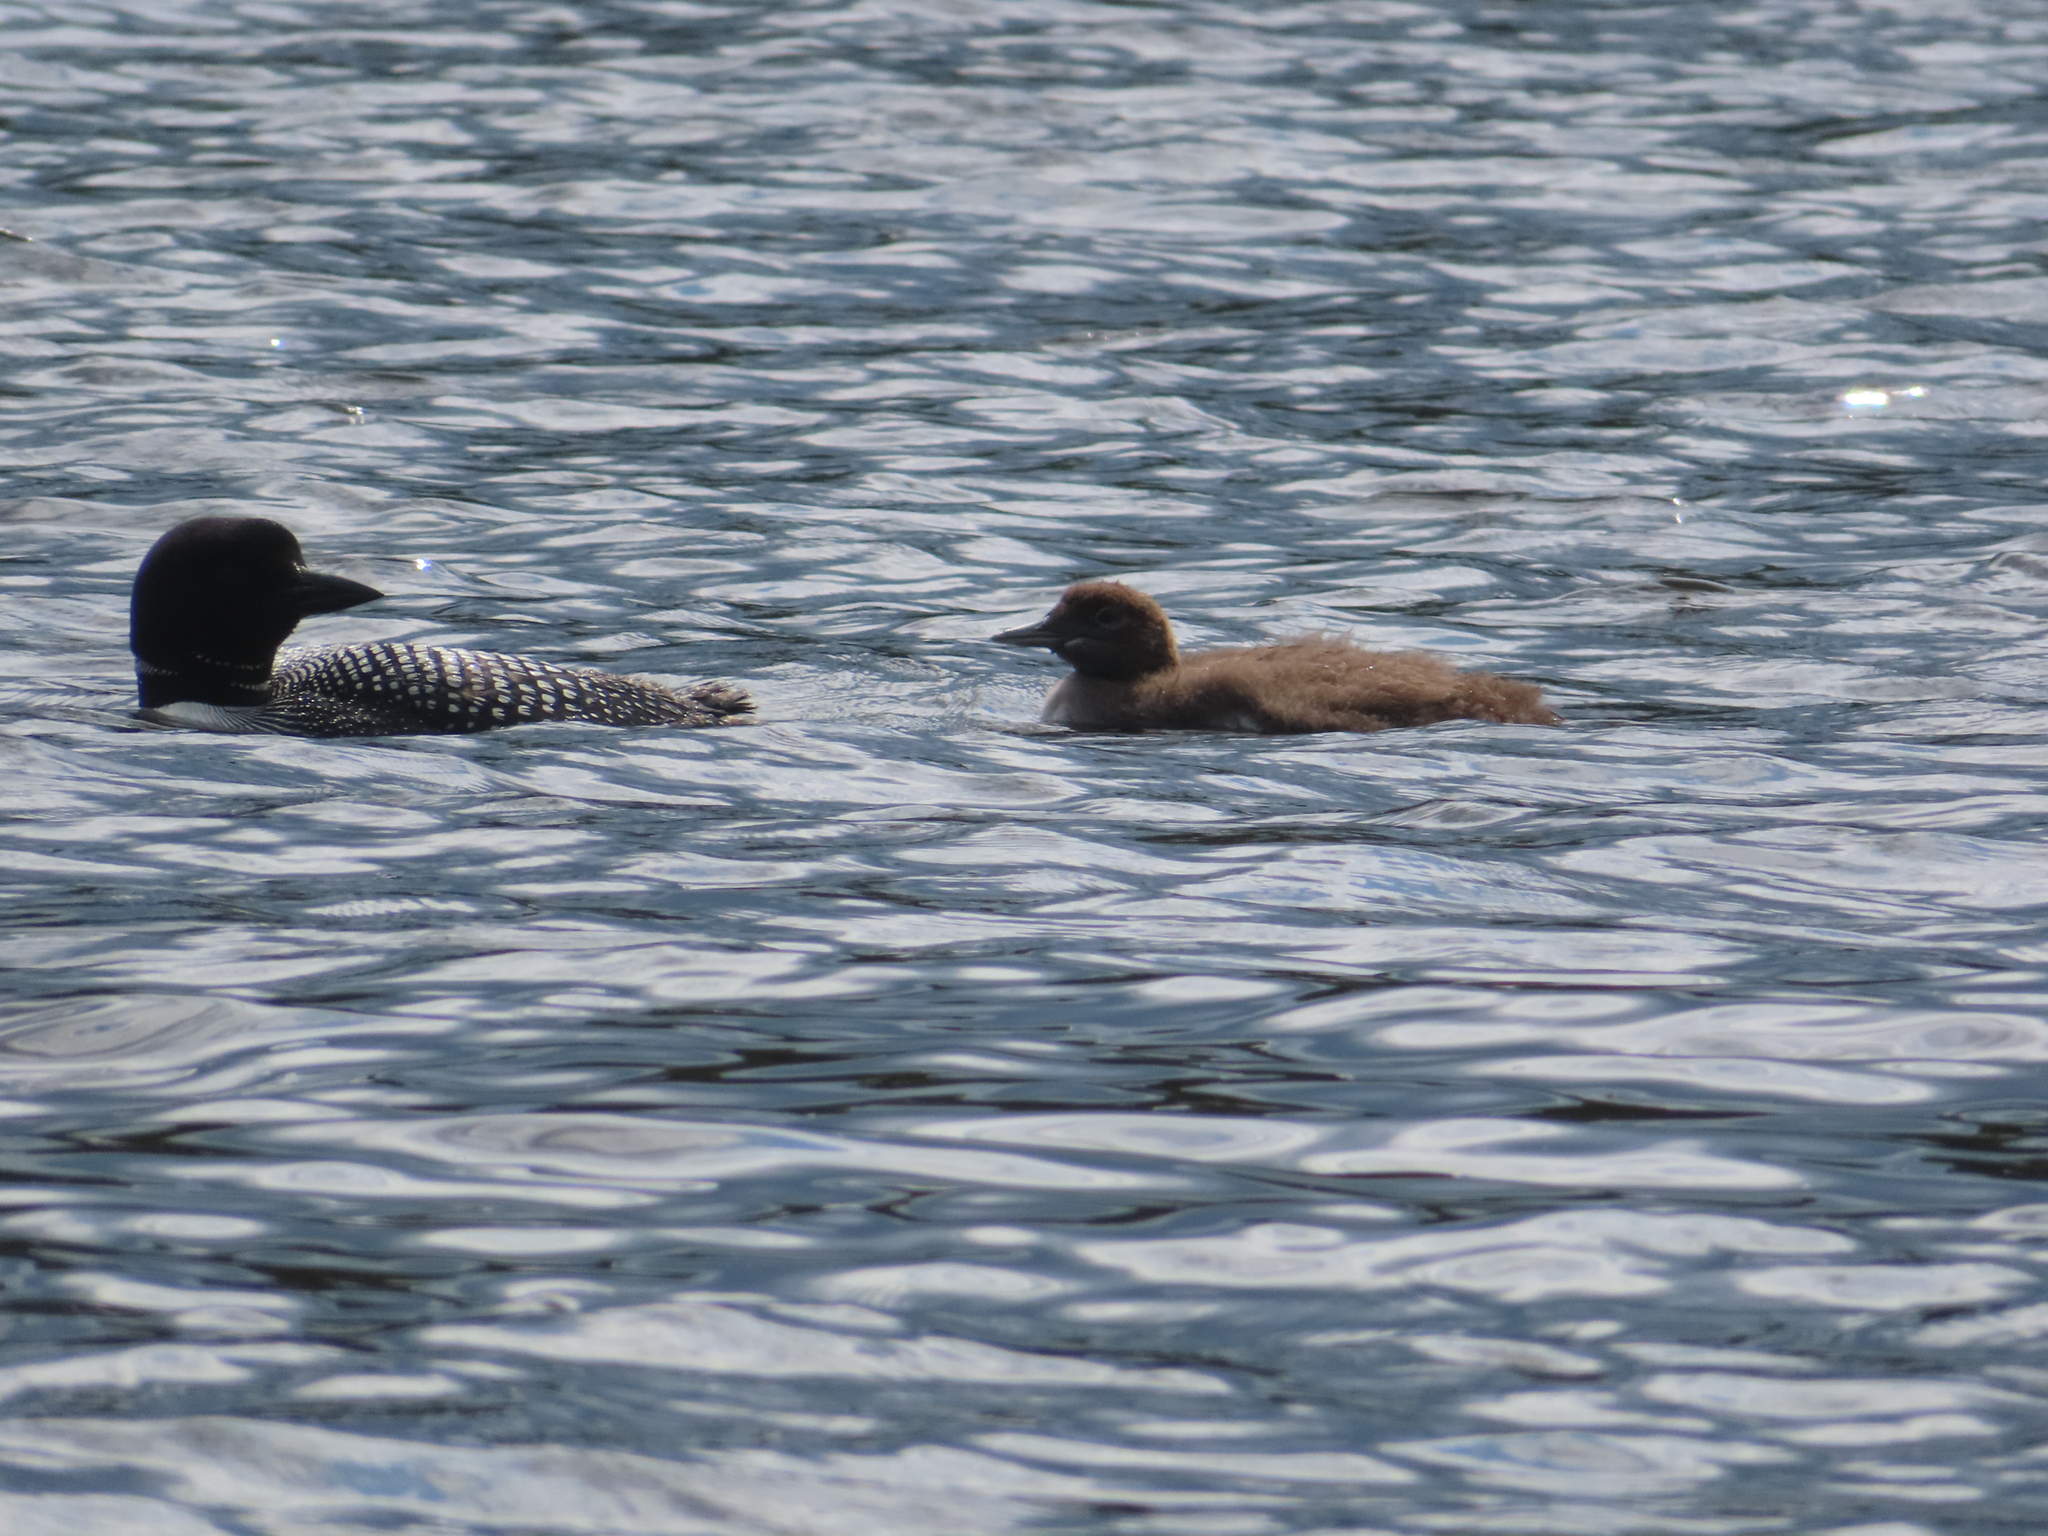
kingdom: Animalia
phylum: Chordata
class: Aves
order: Gaviiformes
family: Gaviidae
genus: Gavia
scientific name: Gavia immer
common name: Common loon
